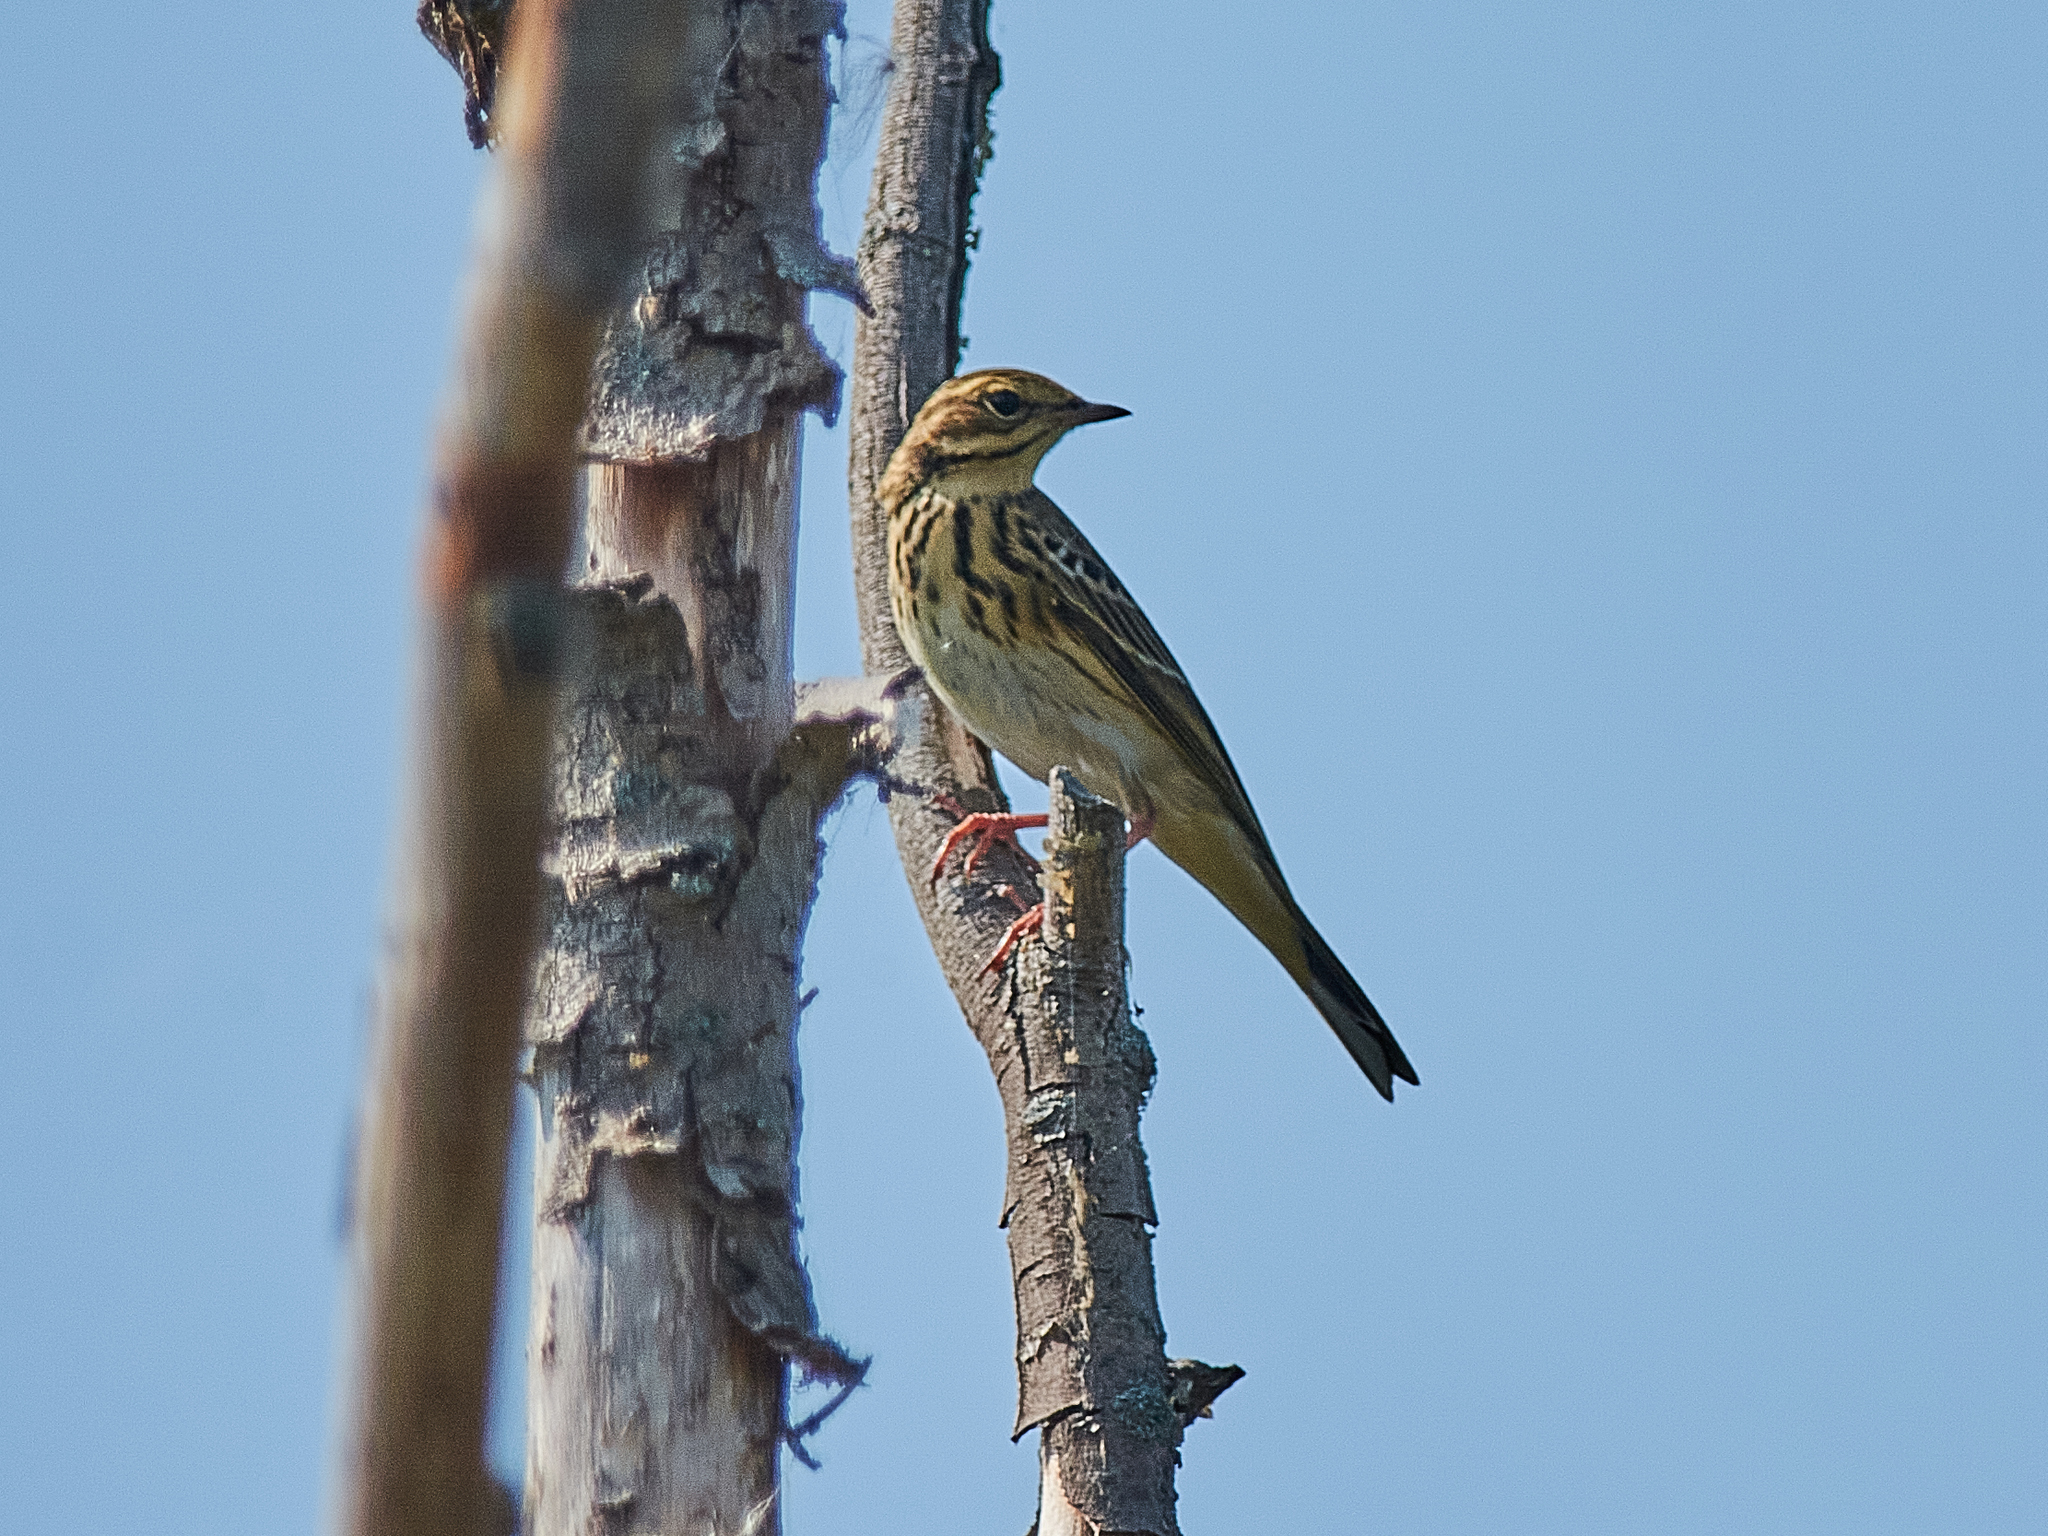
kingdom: Animalia
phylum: Chordata
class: Aves
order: Passeriformes
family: Motacillidae
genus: Anthus
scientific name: Anthus trivialis
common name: Tree pipit
